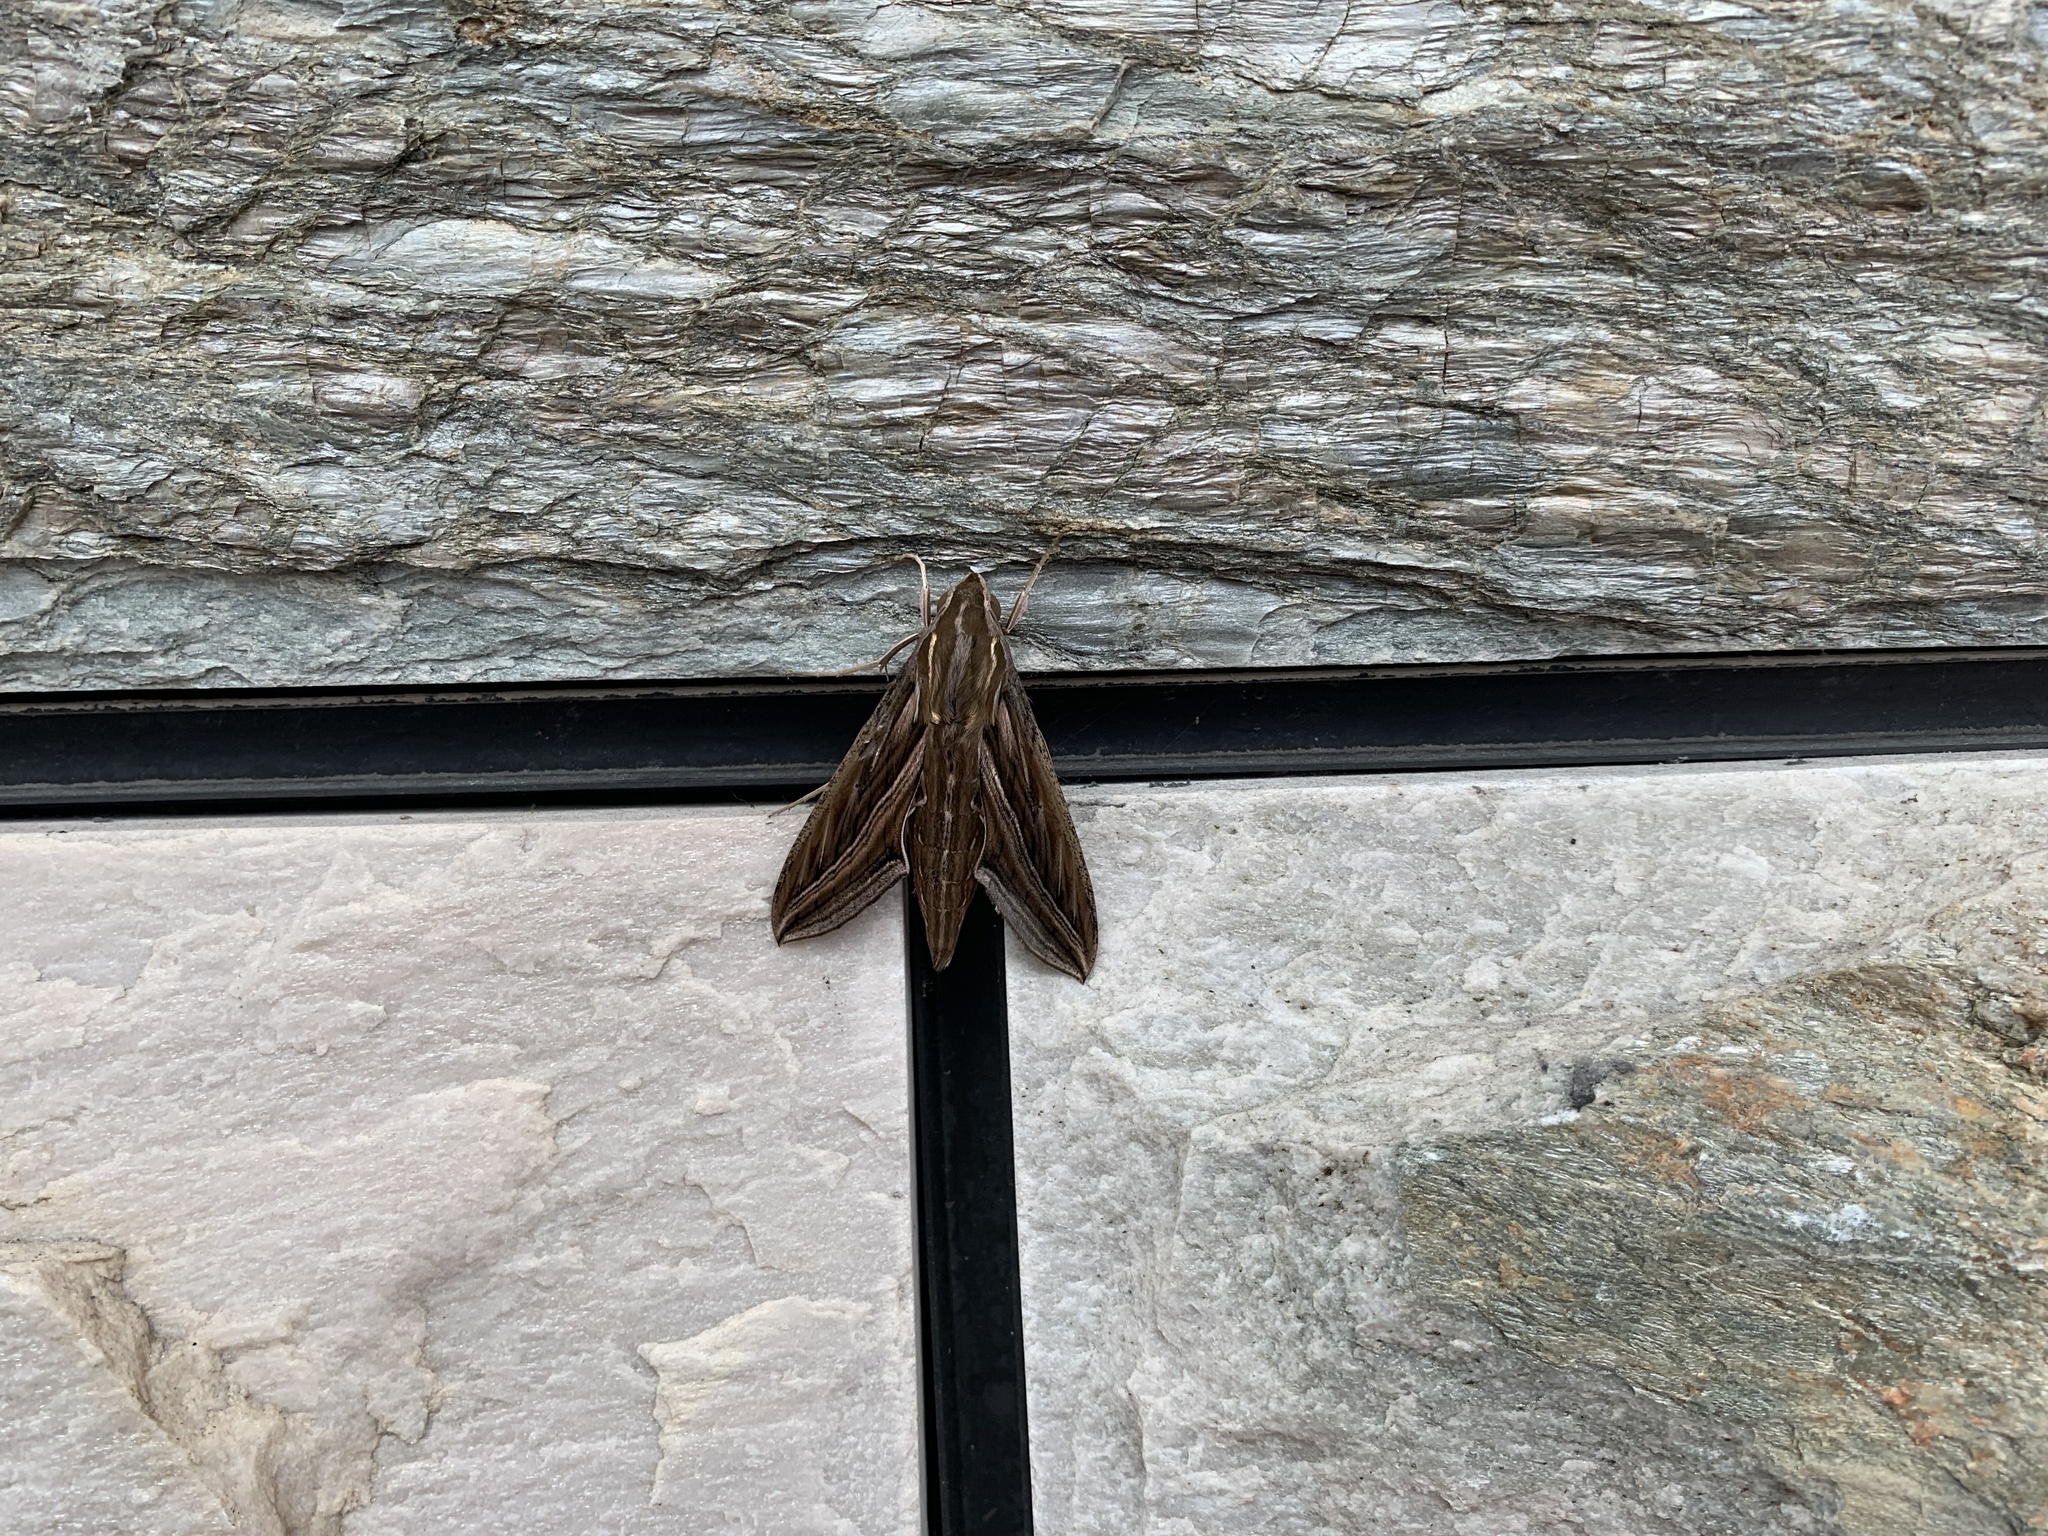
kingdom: Animalia
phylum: Arthropoda
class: Insecta
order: Lepidoptera
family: Sphingidae
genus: Hippotion
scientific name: Hippotion celerio
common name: Silver-striped hawk-moth
